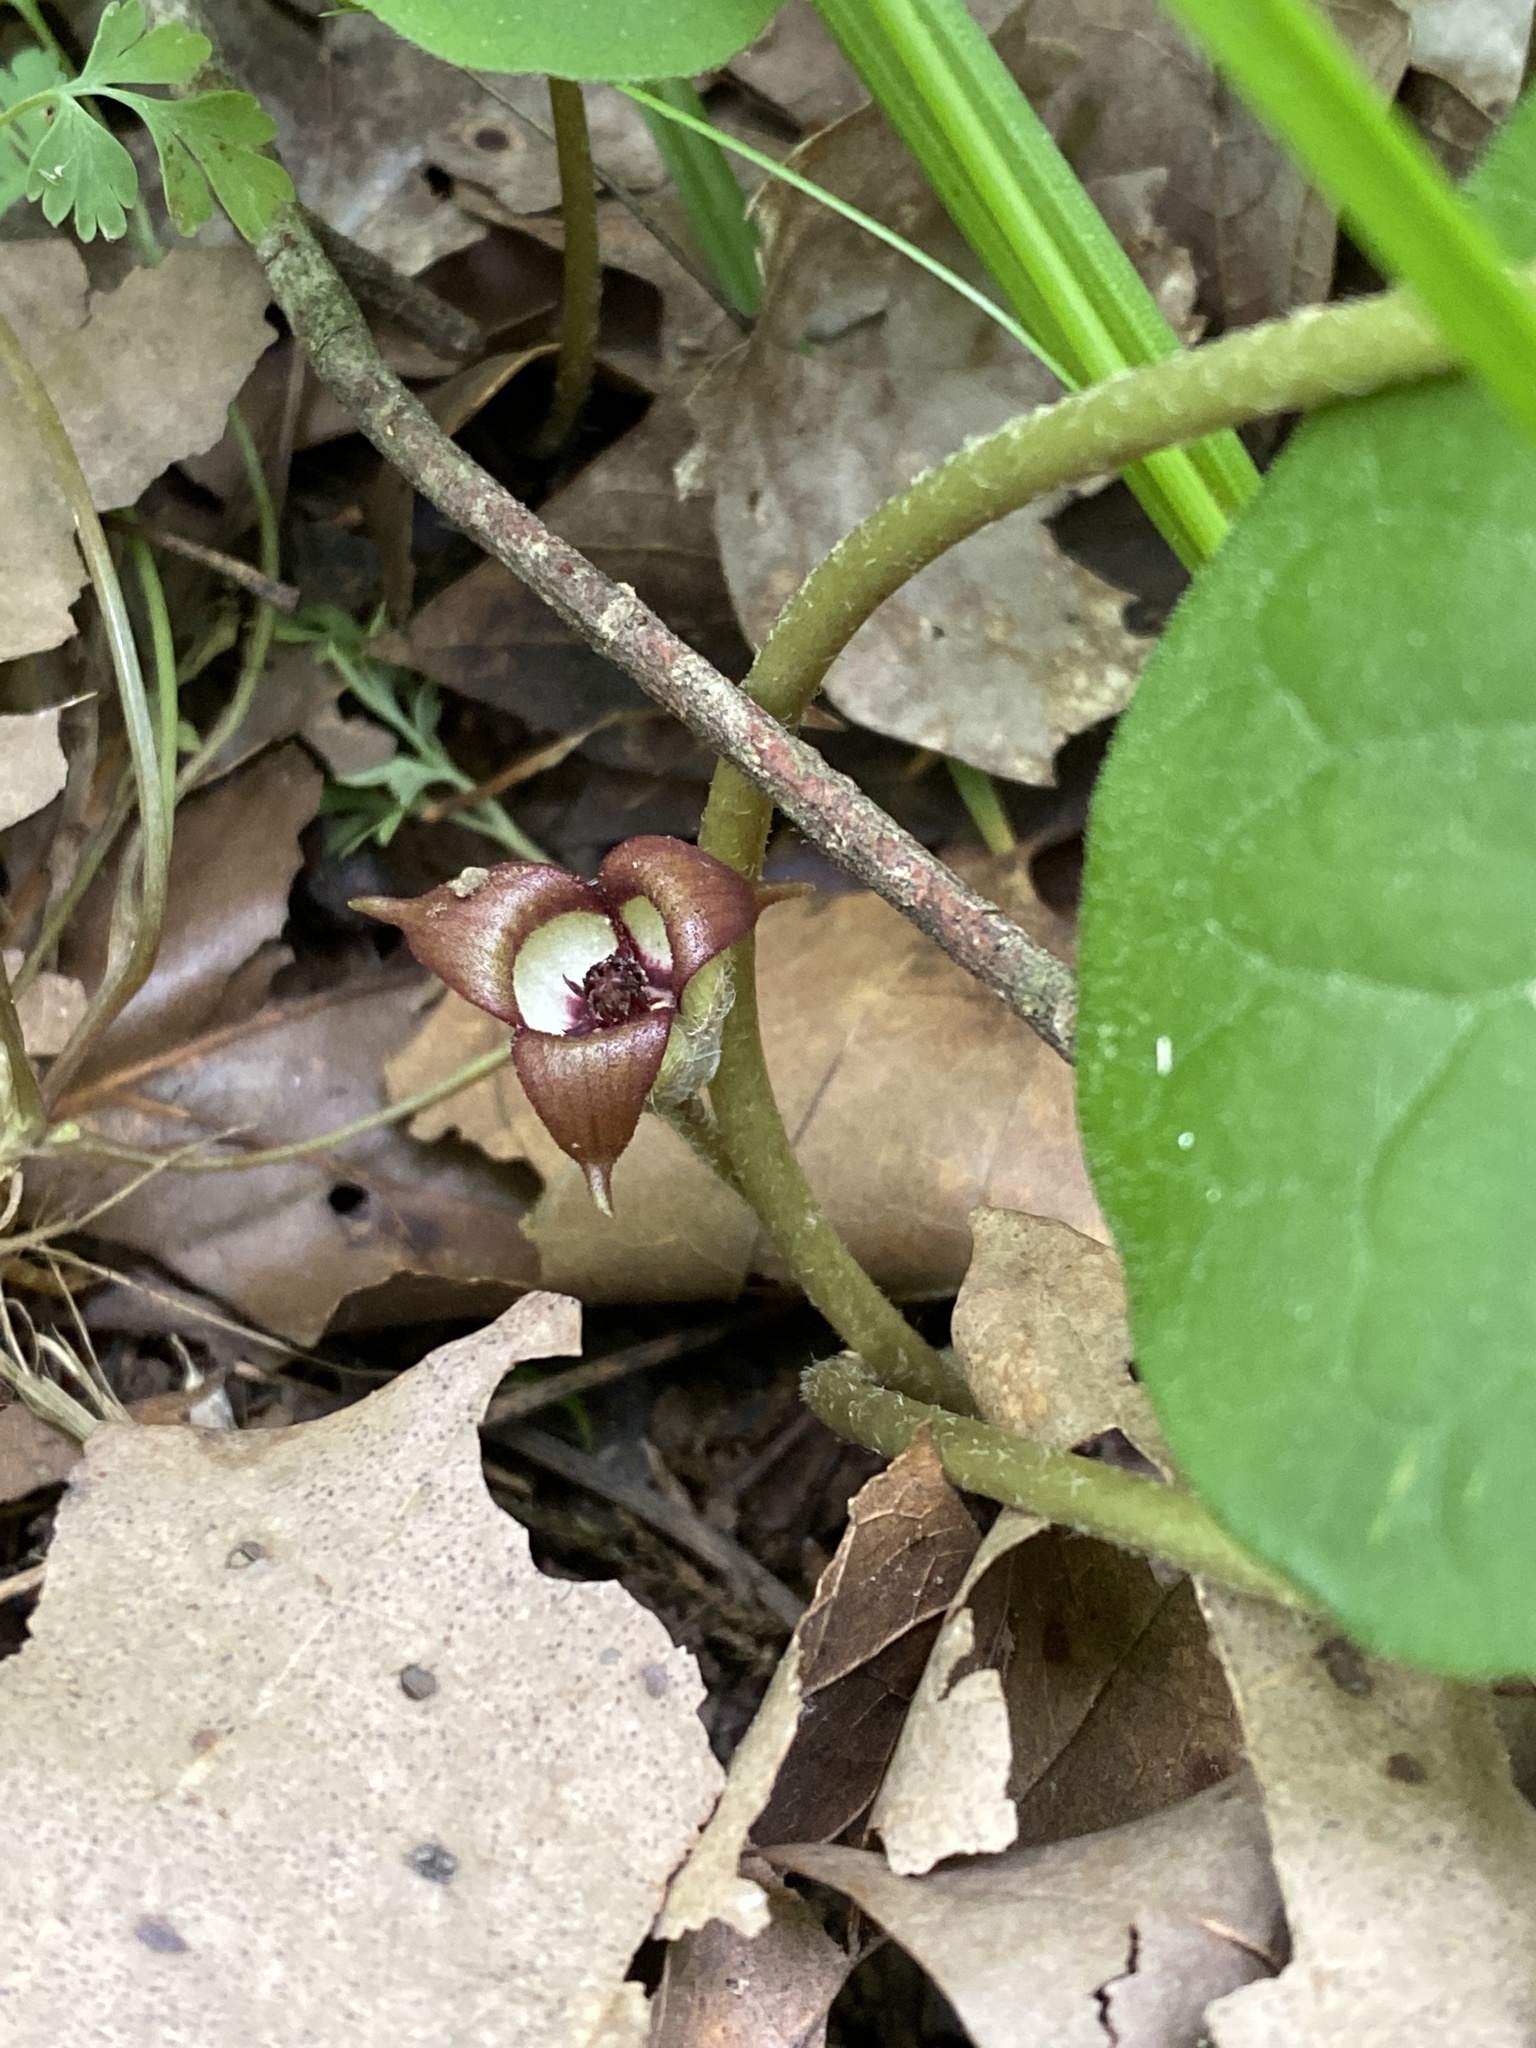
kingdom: Plantae
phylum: Tracheophyta
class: Magnoliopsida
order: Piperales
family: Aristolochiaceae
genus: Asarum
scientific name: Asarum canadense
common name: Wild ginger
